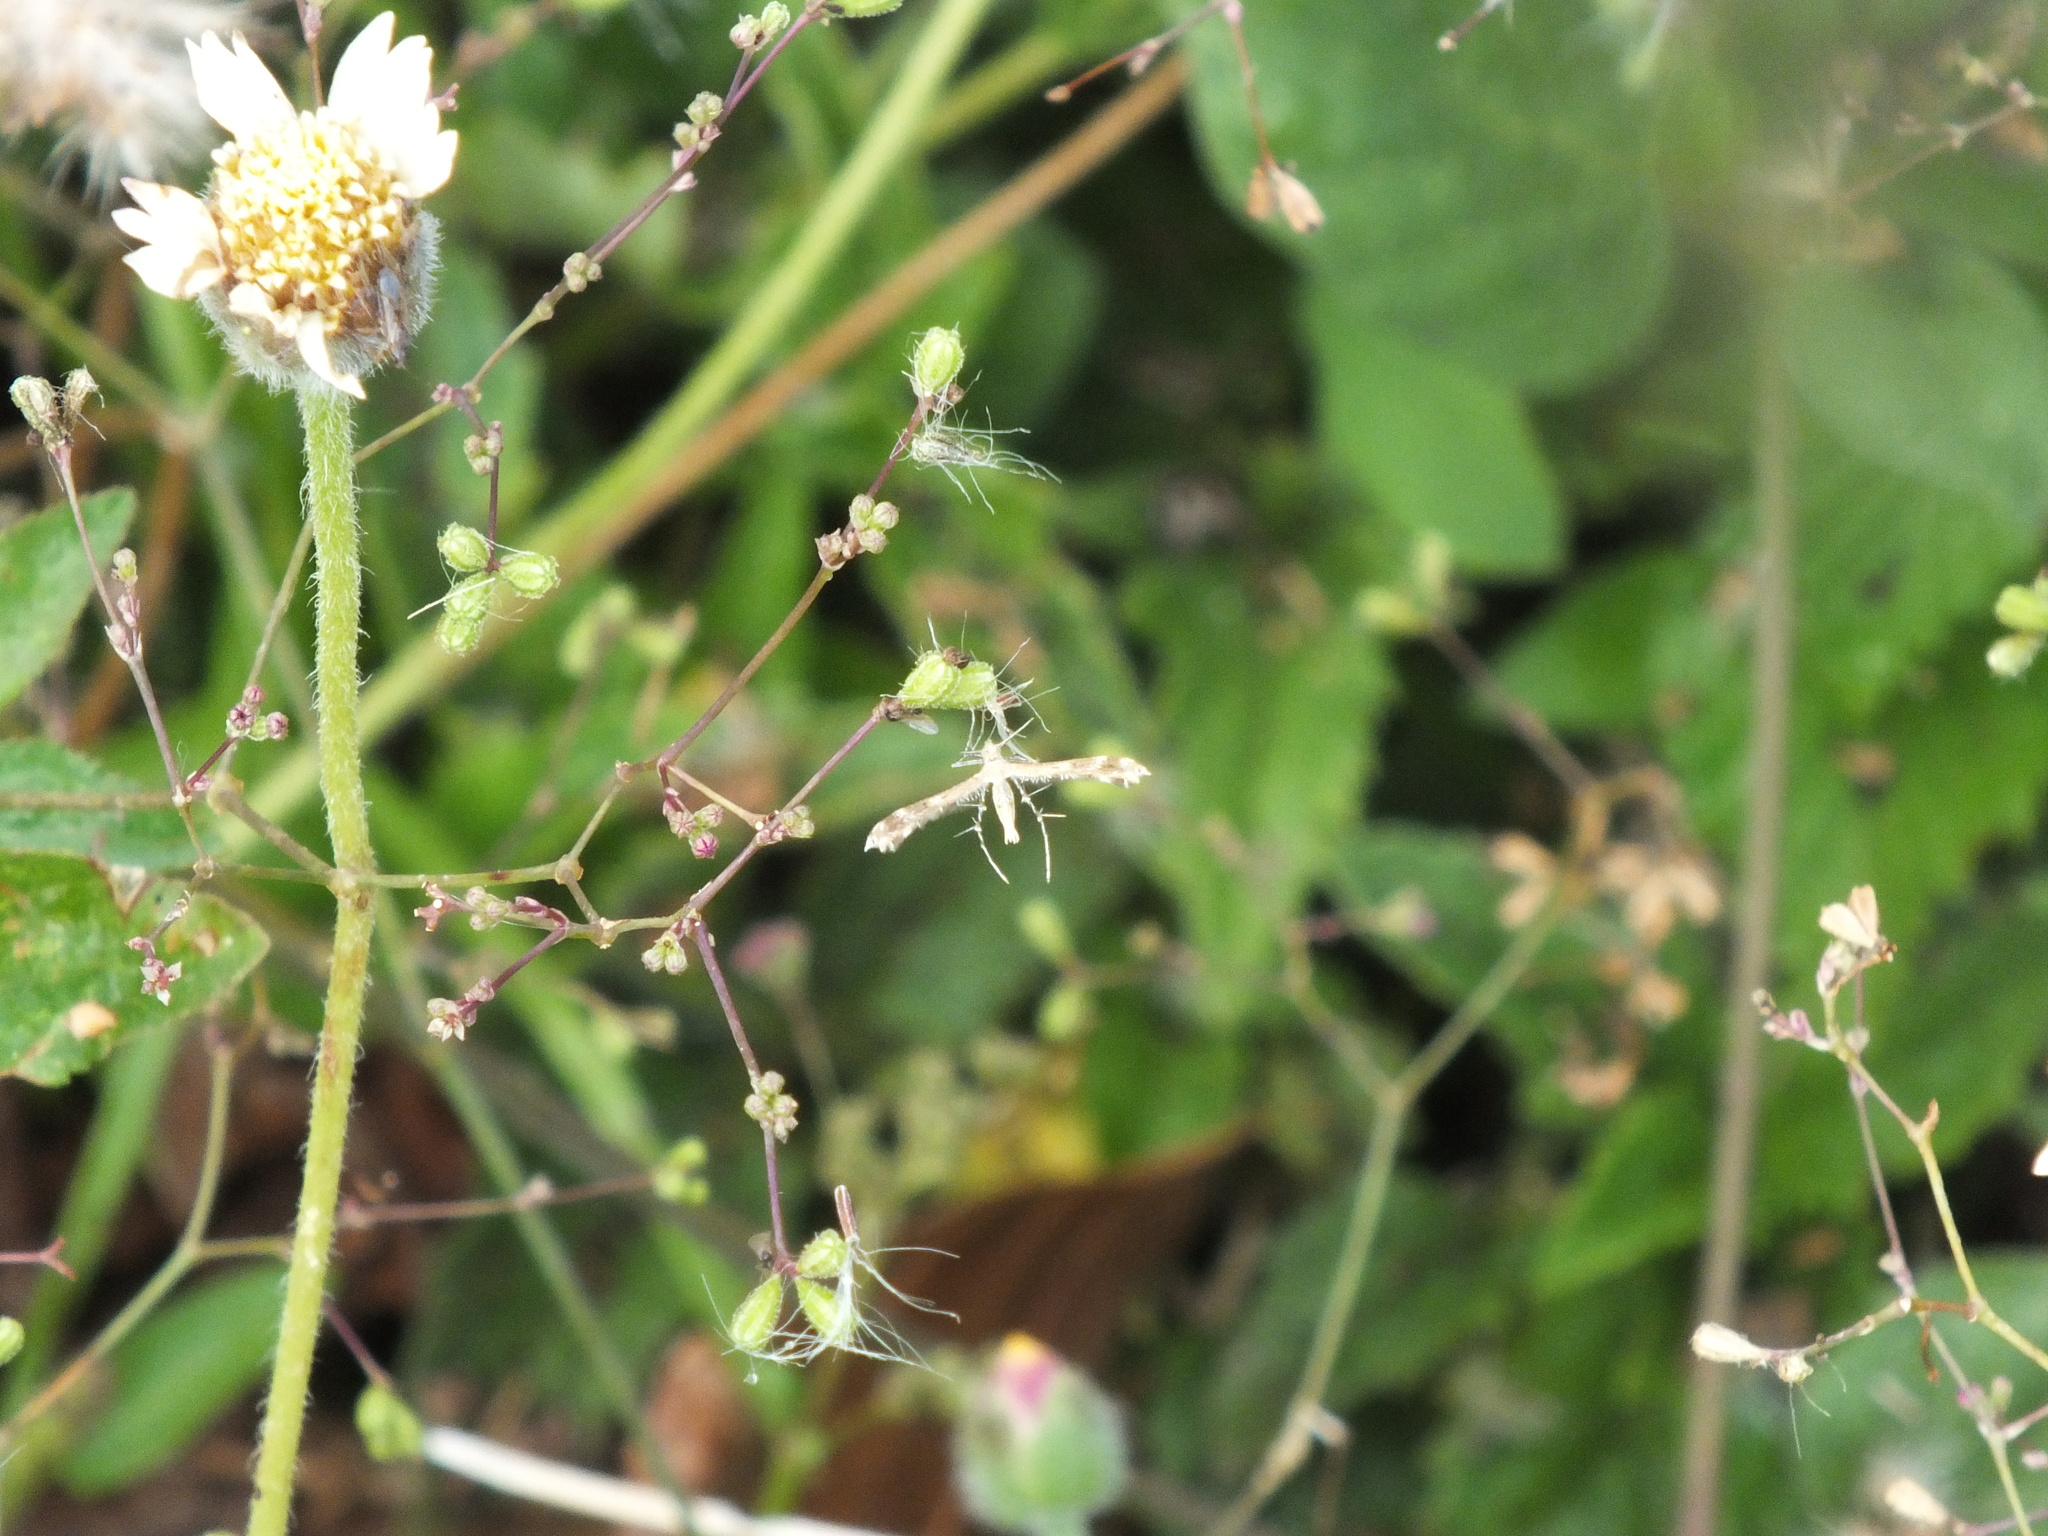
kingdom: Plantae
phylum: Tracheophyta
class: Magnoliopsida
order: Caryophyllales
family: Nyctaginaceae
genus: Boerhavia
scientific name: Boerhavia diffusa
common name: Red spiderling
